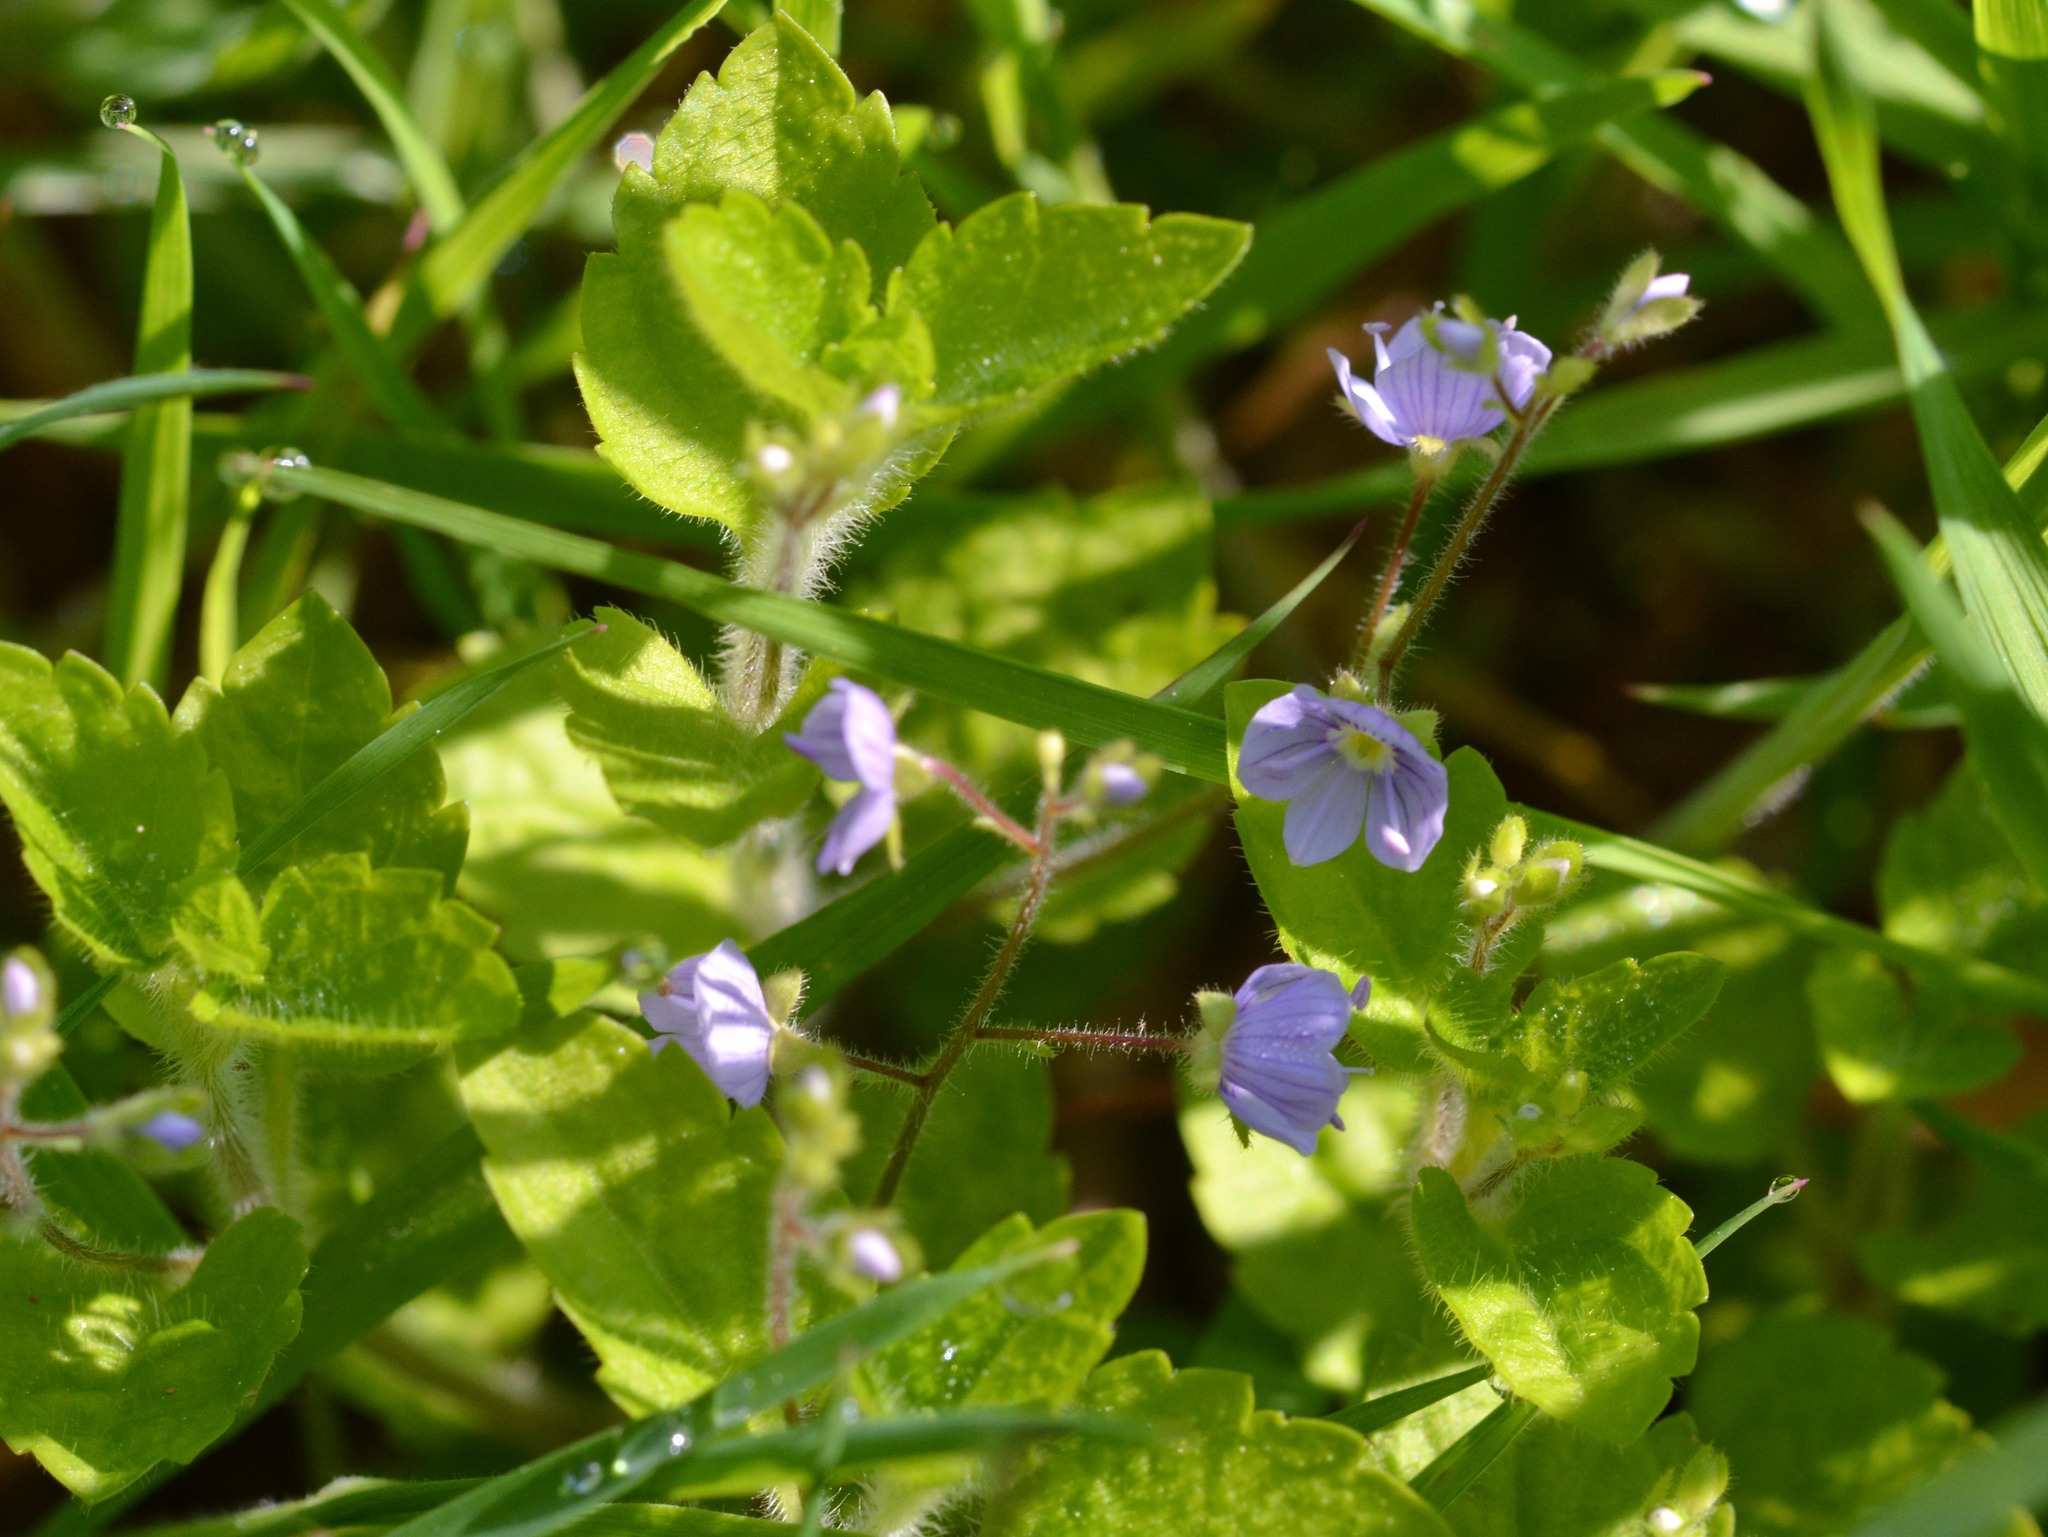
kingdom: Plantae
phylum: Tracheophyta
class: Magnoliopsida
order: Lamiales
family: Plantaginaceae
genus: Veronica
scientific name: Veronica montana
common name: Wood speedwell
